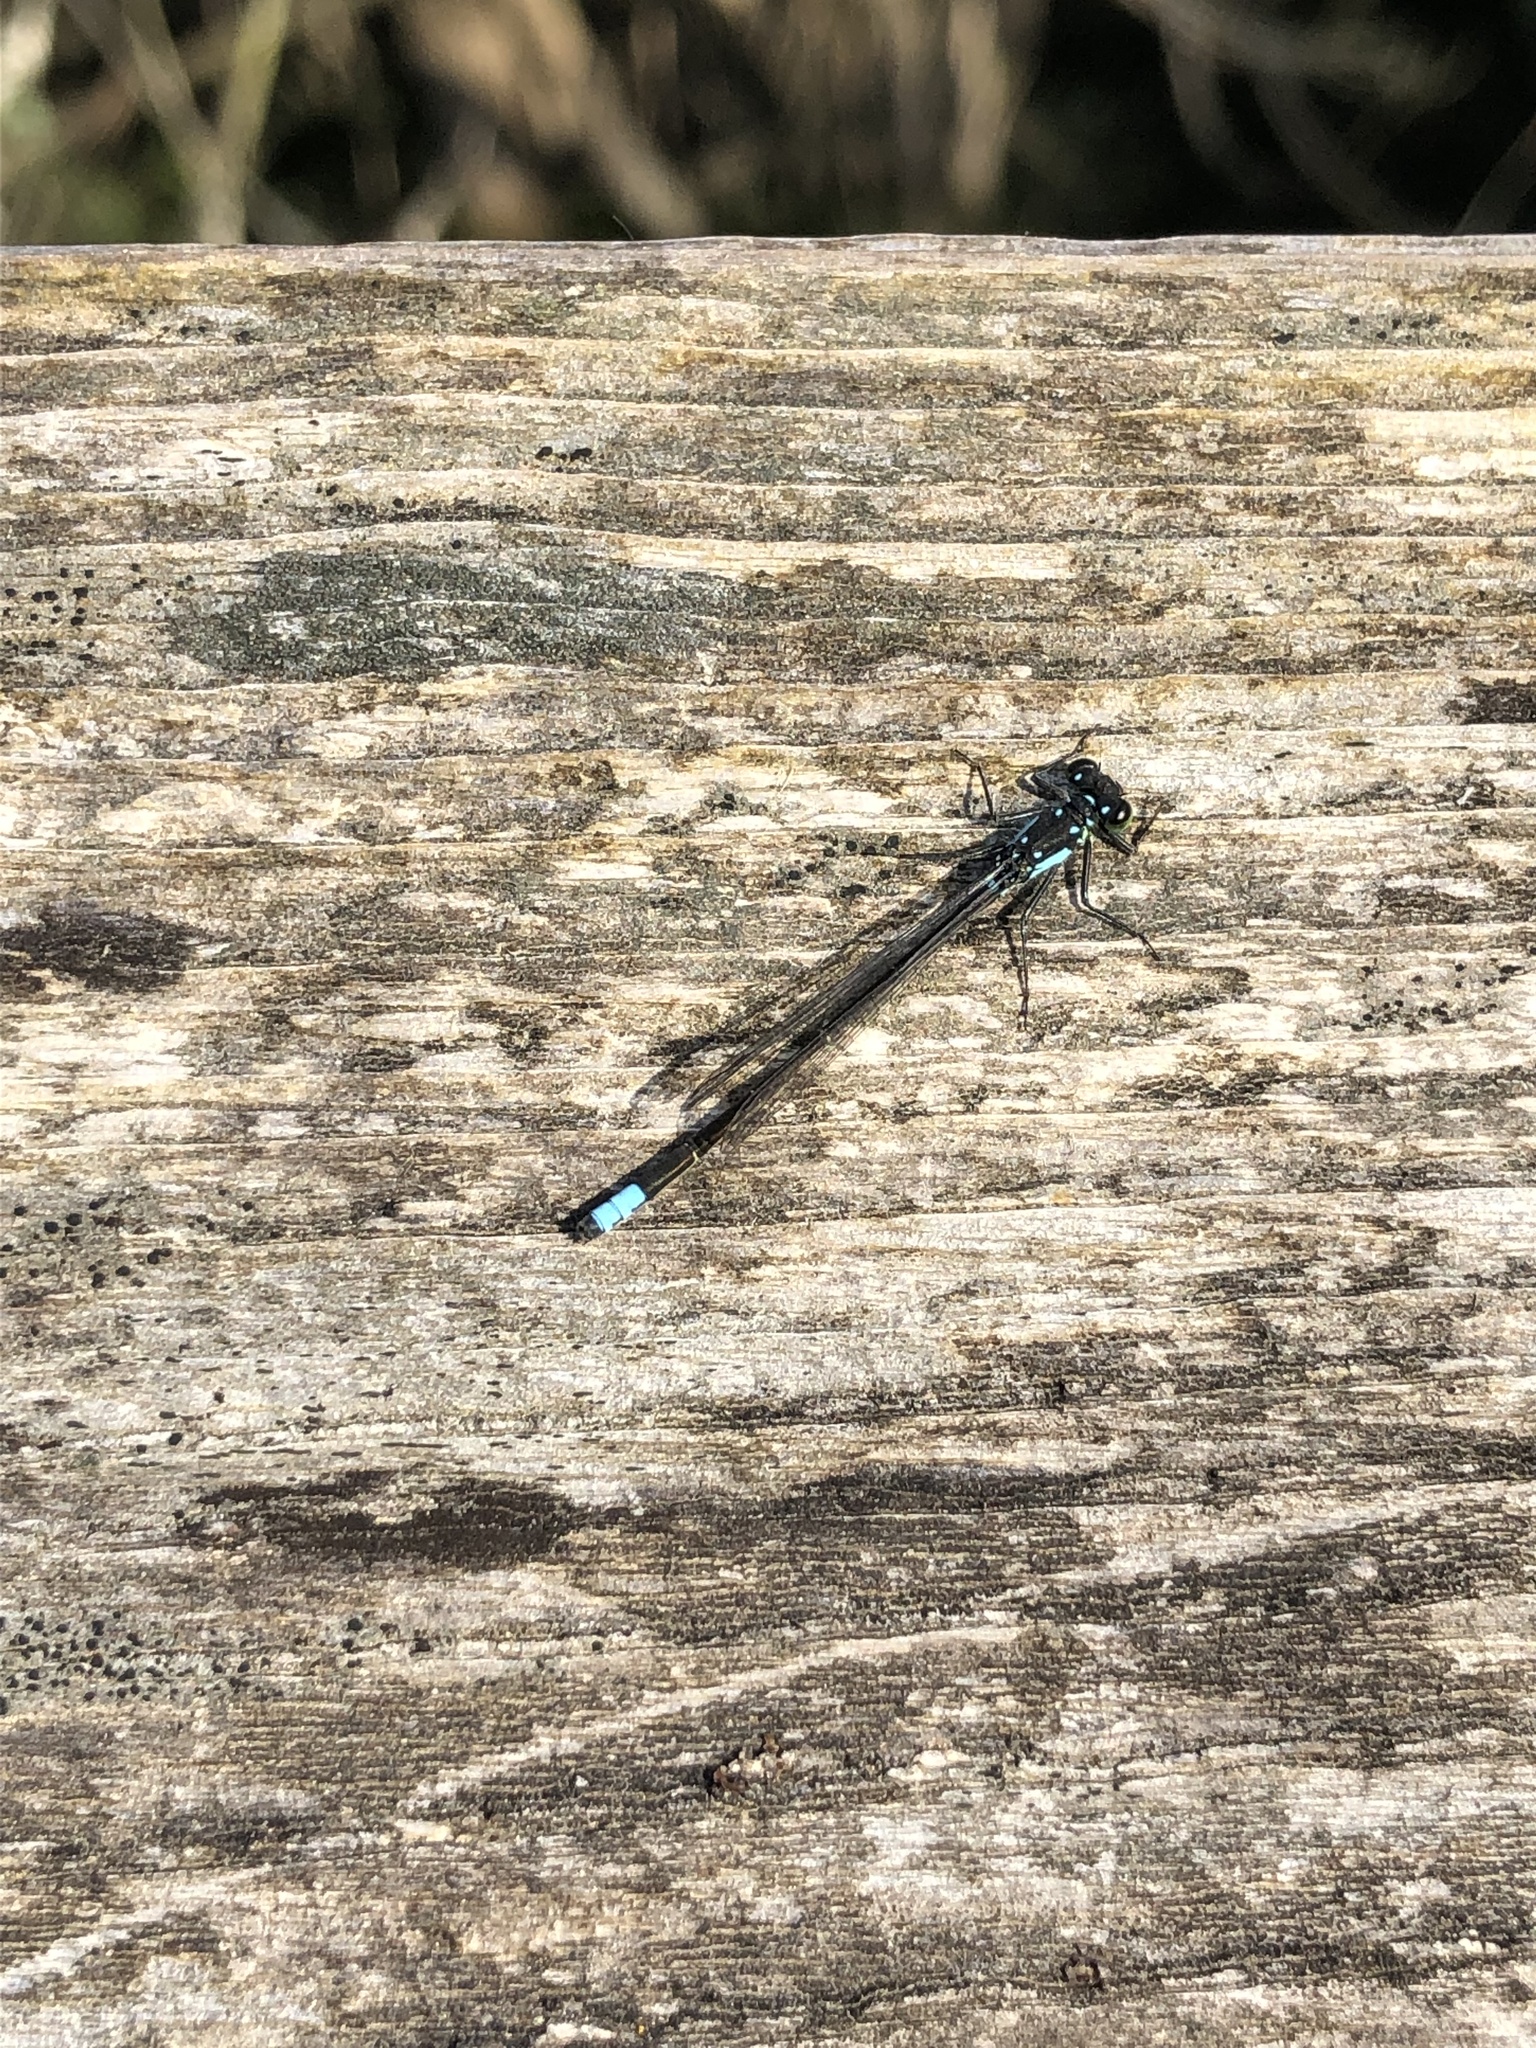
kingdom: Animalia
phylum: Arthropoda
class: Insecta
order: Odonata
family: Coenagrionidae
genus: Ischnura
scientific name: Ischnura cervula
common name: Pacific forktail
